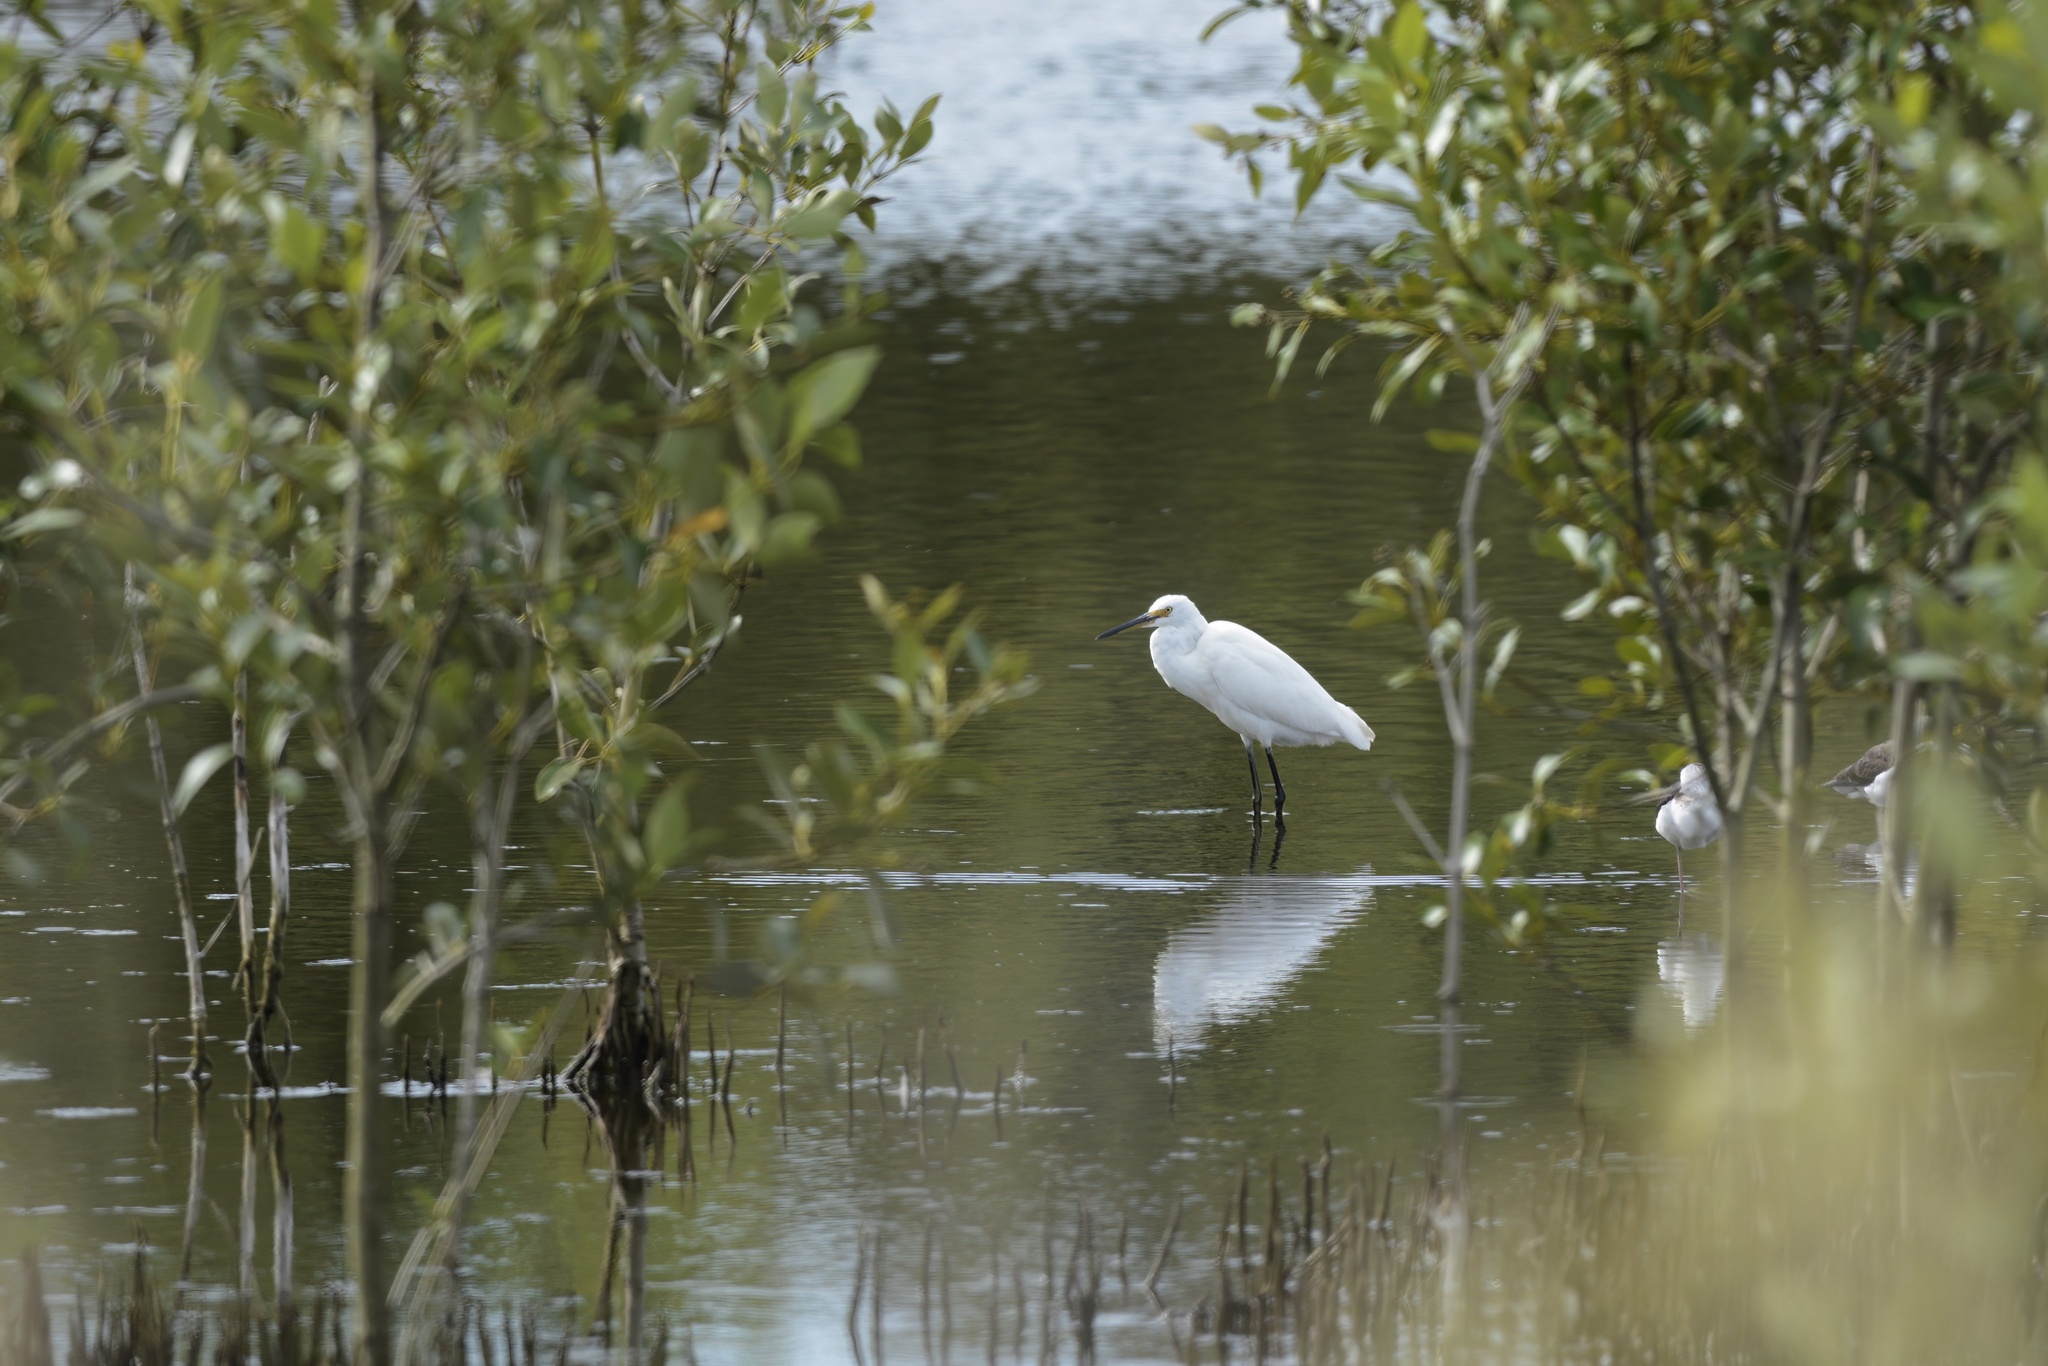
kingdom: Animalia
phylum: Chordata
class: Aves
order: Pelecaniformes
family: Ardeidae
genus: Egretta
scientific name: Egretta garzetta
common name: Little egret
